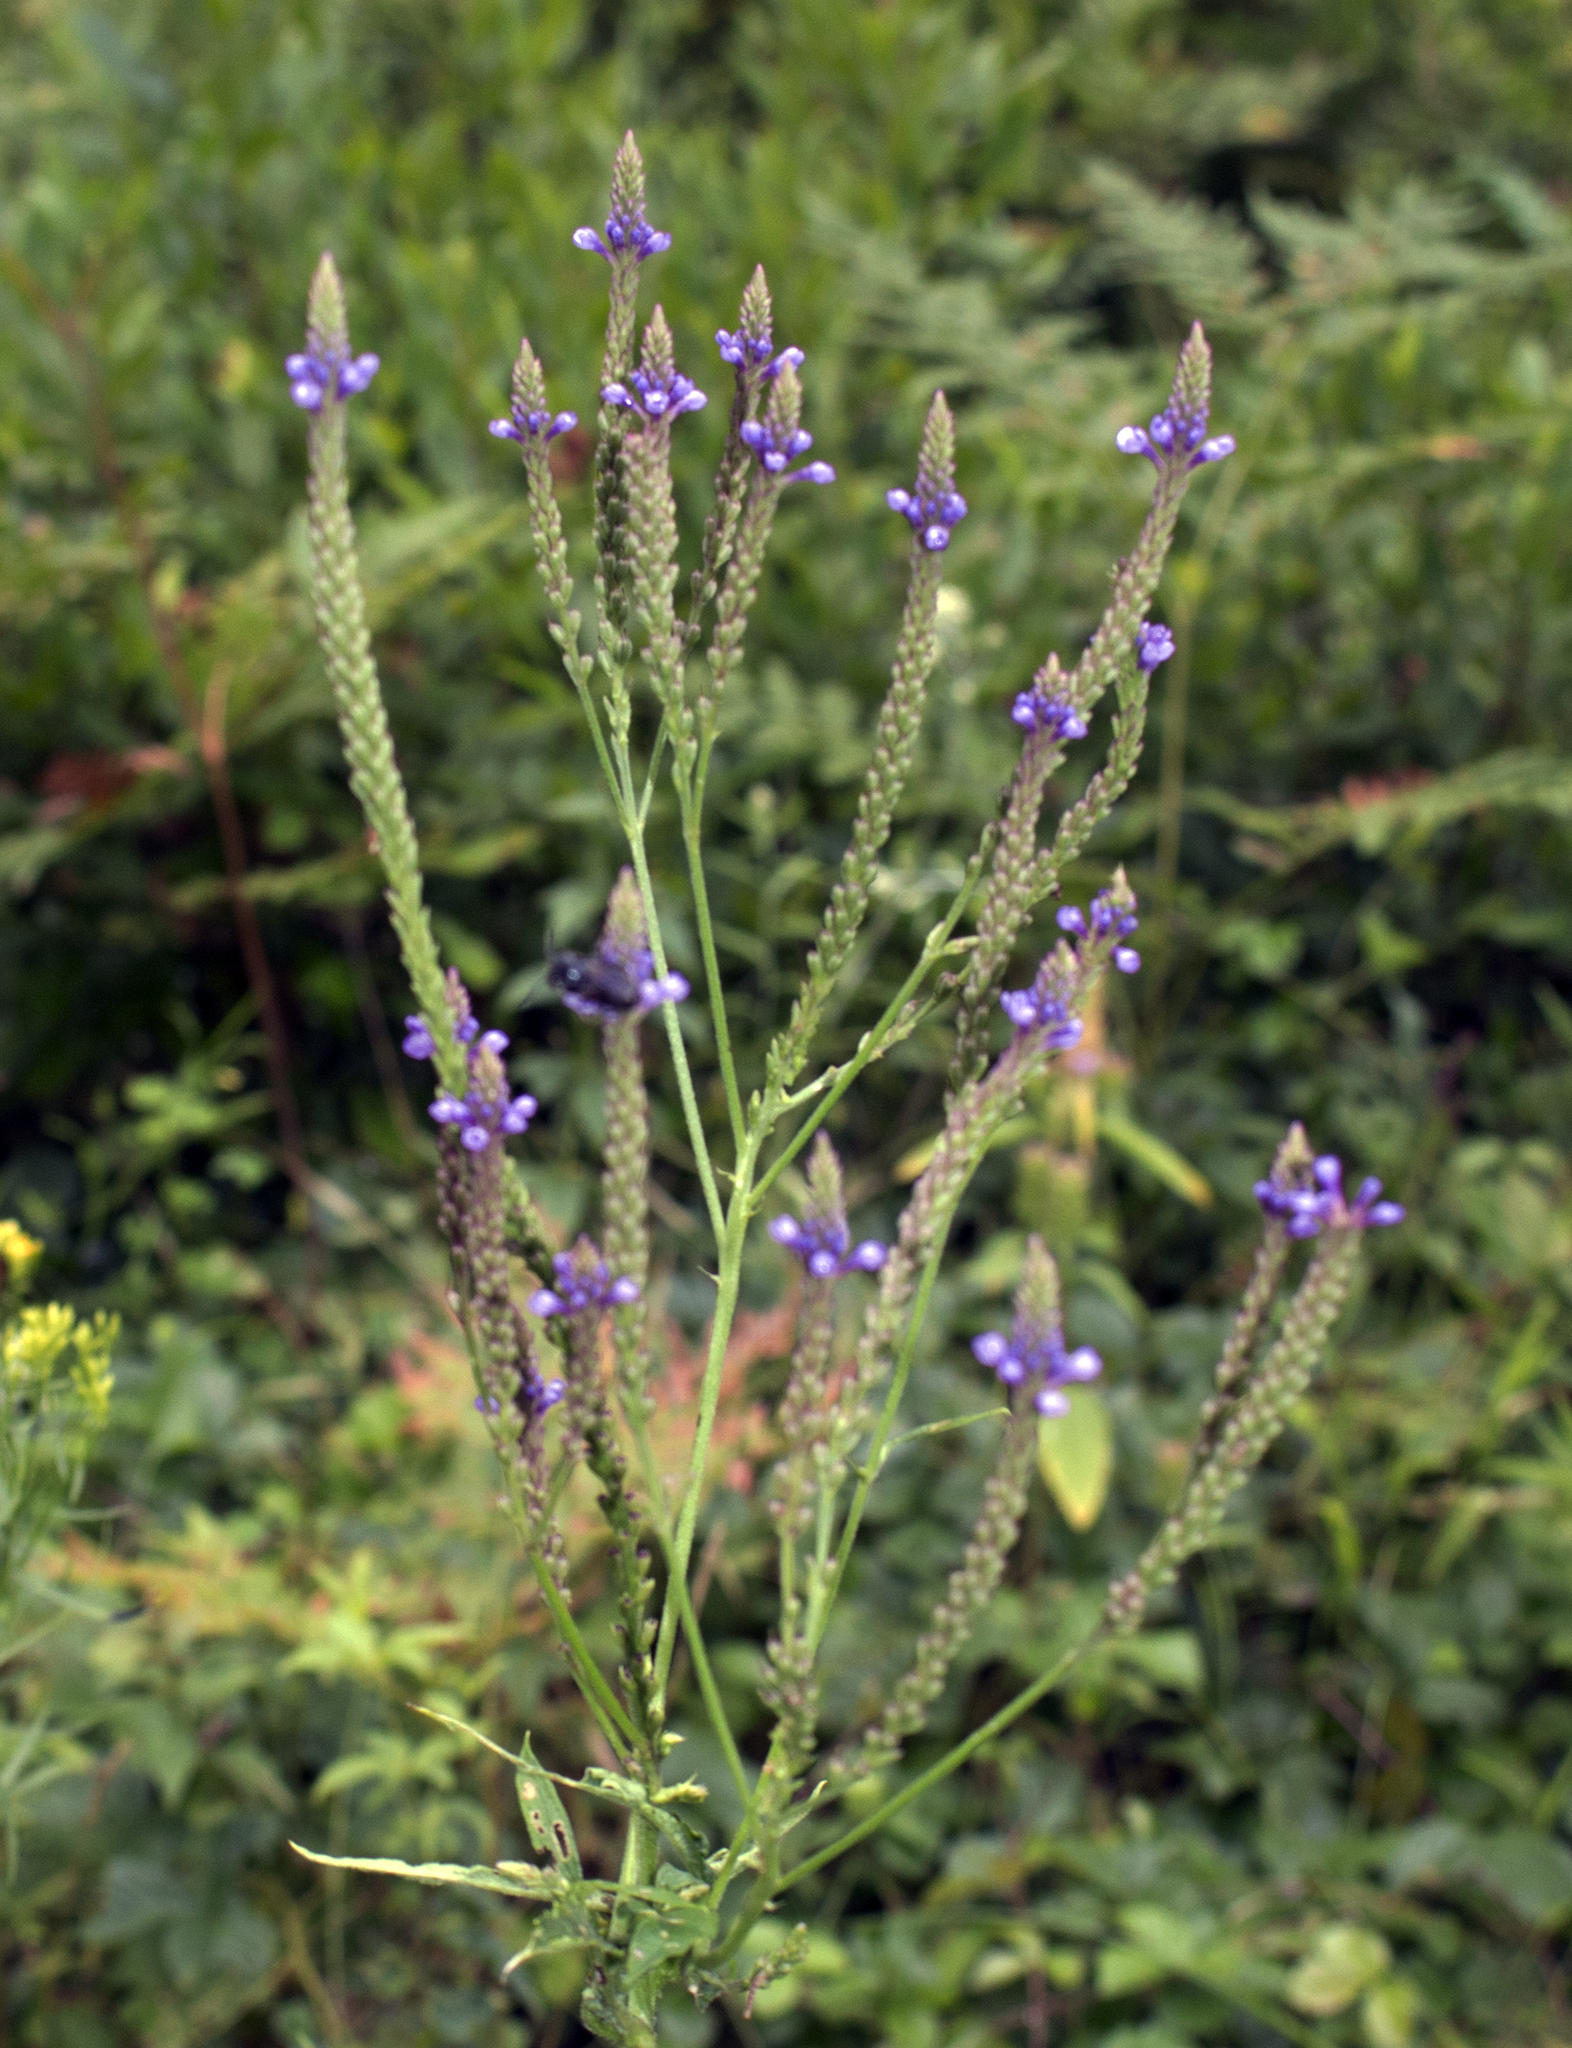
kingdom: Plantae
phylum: Tracheophyta
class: Magnoliopsida
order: Lamiales
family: Verbenaceae
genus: Verbena
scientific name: Verbena hastata
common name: American blue vervain
